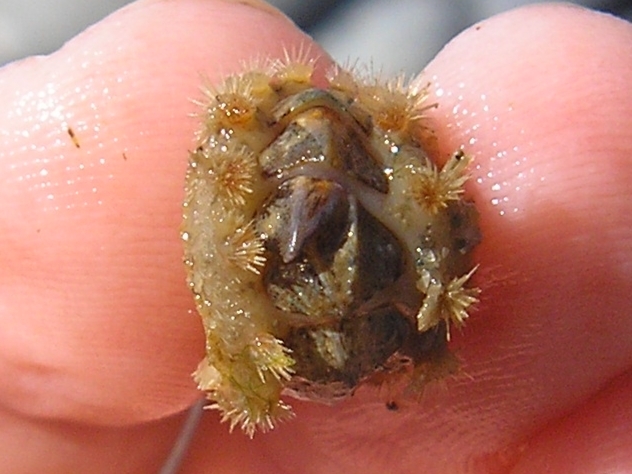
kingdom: Animalia
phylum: Mollusca
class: Polyplacophora
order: Chitonida
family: Acanthochitonidae
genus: Acanthochitona
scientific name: Acanthochitona crinita
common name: Bristly mail chiton
